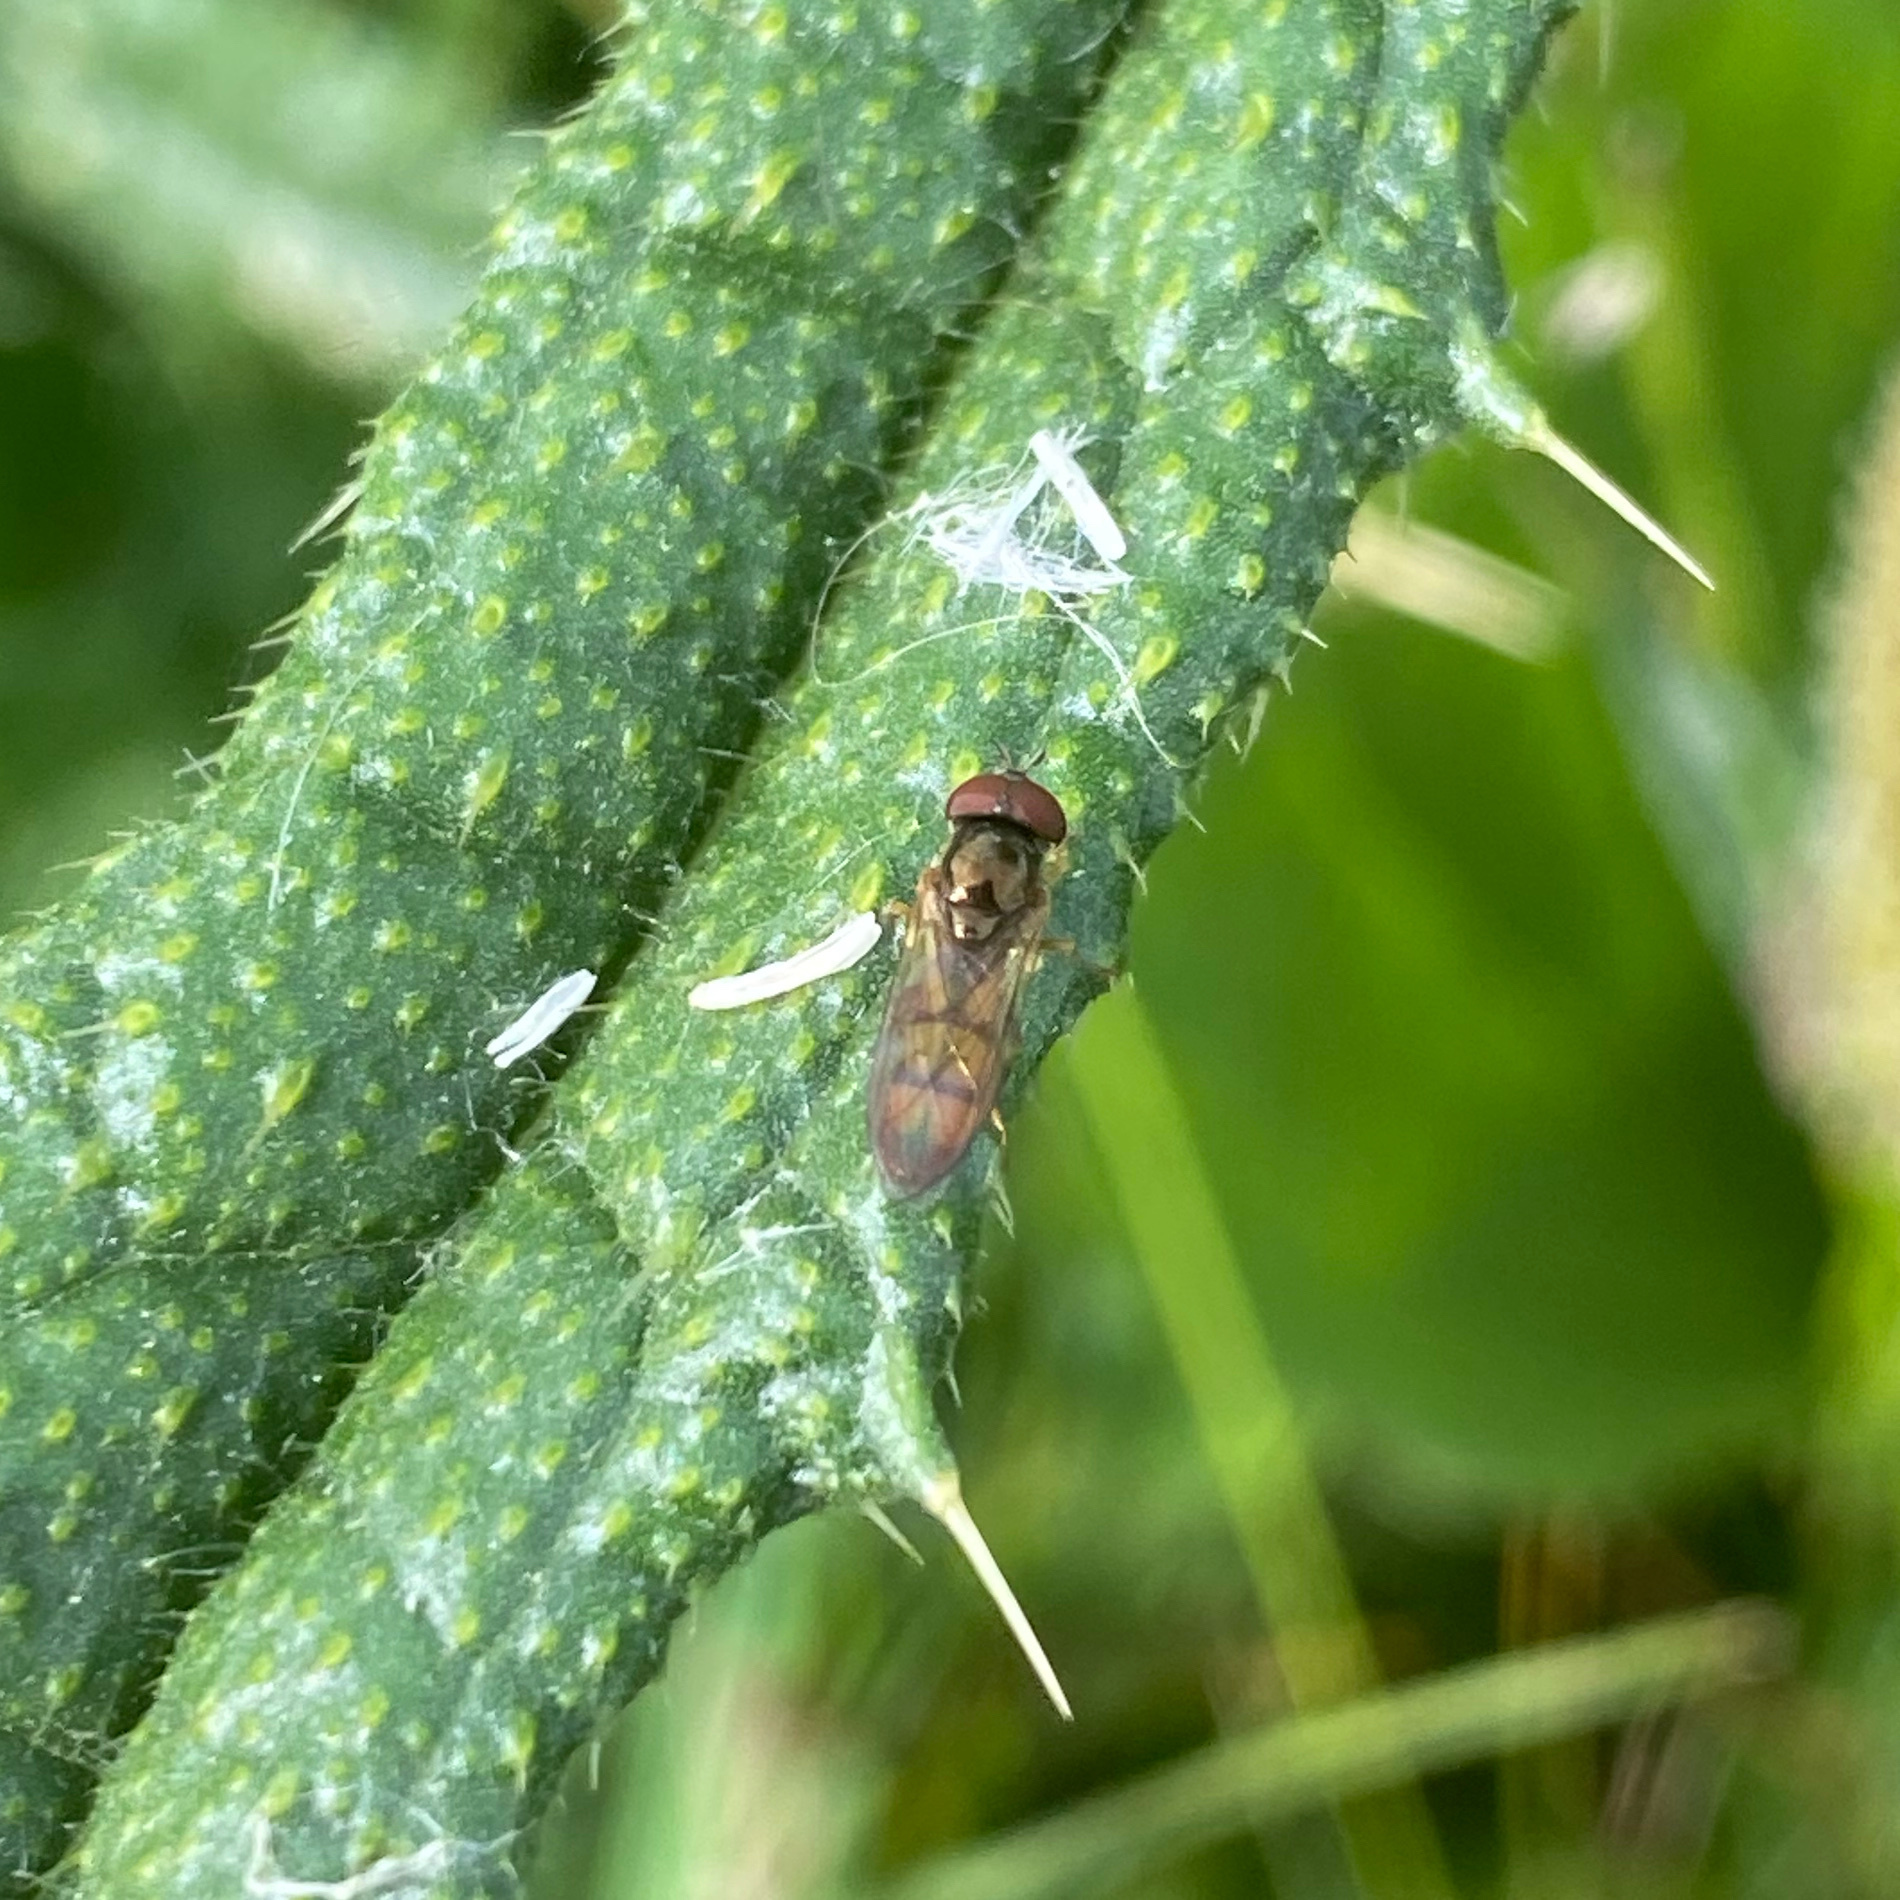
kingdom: Animalia
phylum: Arthropoda
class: Insecta
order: Diptera
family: Syrphidae
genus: Melanostoma
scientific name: Melanostoma fasciatum
